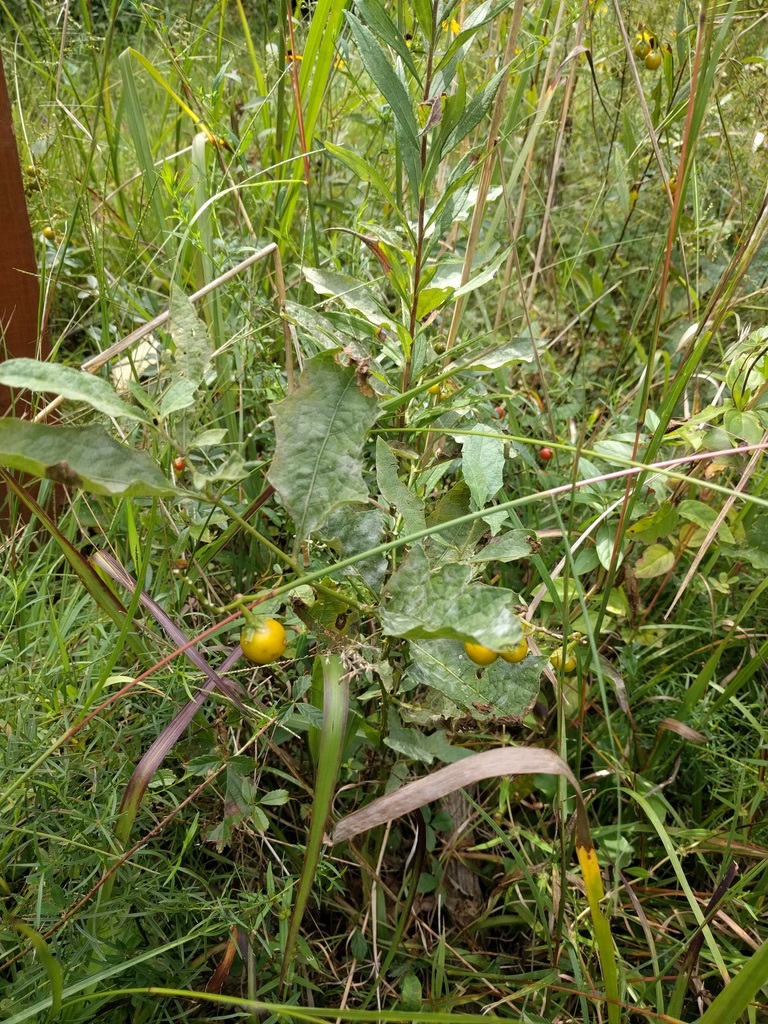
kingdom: Plantae
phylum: Tracheophyta
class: Magnoliopsida
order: Solanales
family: Solanaceae
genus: Solanum
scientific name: Solanum carolinense
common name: Horse-nettle
